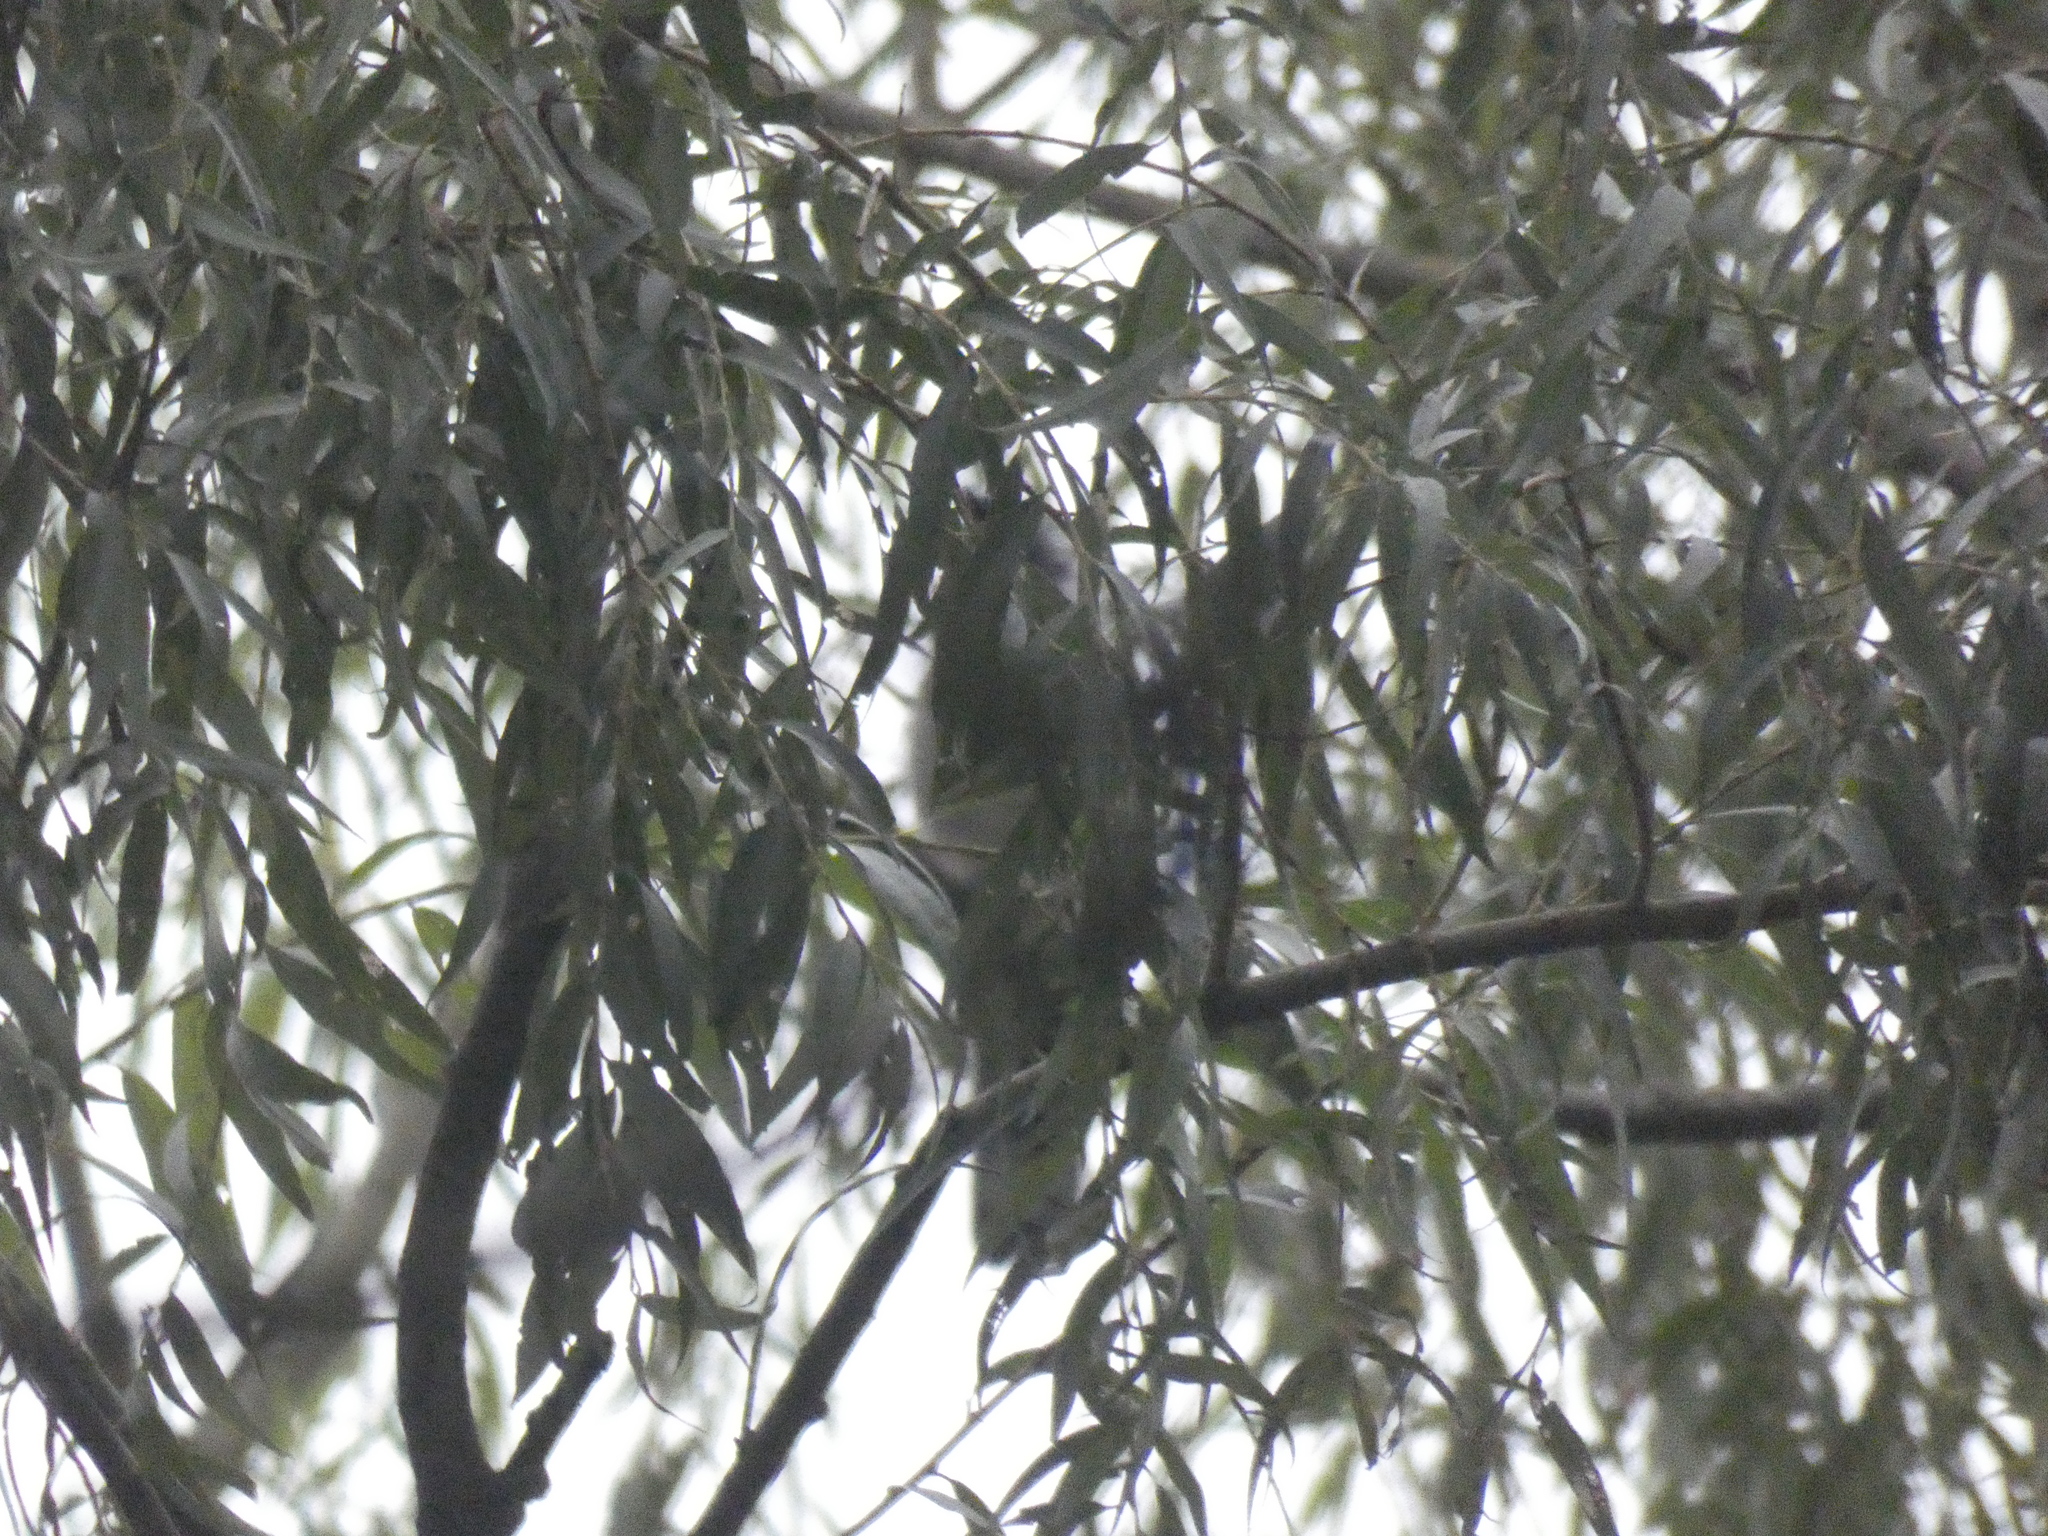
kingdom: Animalia
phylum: Chordata
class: Aves
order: Passeriformes
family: Corvidae
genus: Cyanocitta
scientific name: Cyanocitta cristata
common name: Blue jay
